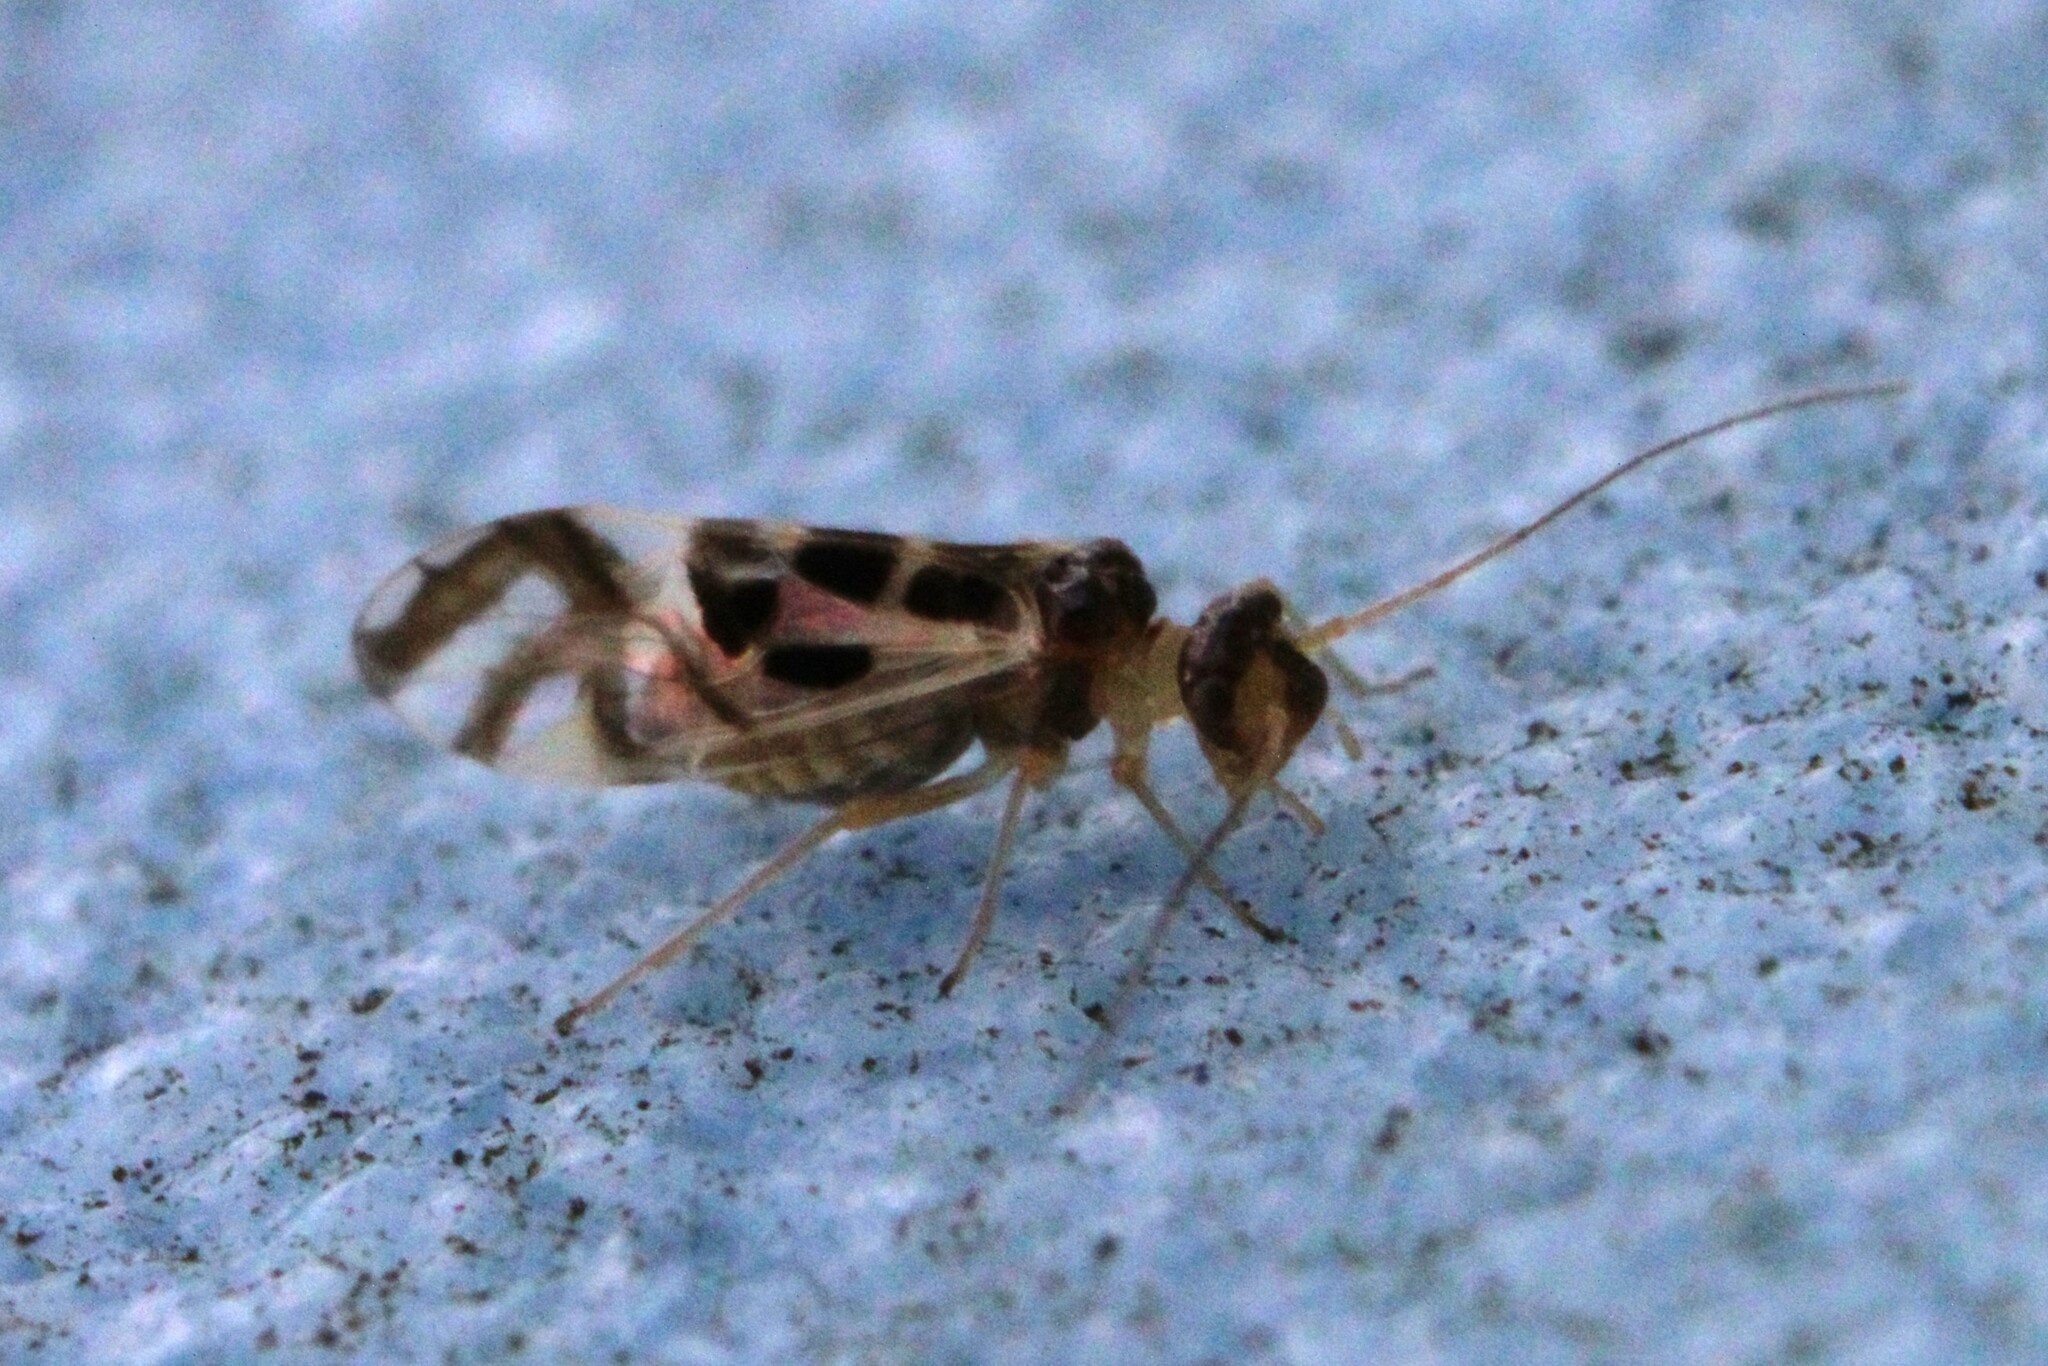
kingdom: Animalia
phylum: Arthropoda
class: Insecta
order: Psocodea
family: Stenopsocidae
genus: Graphopsocus
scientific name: Graphopsocus cruciatus
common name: Lizard bark louse
